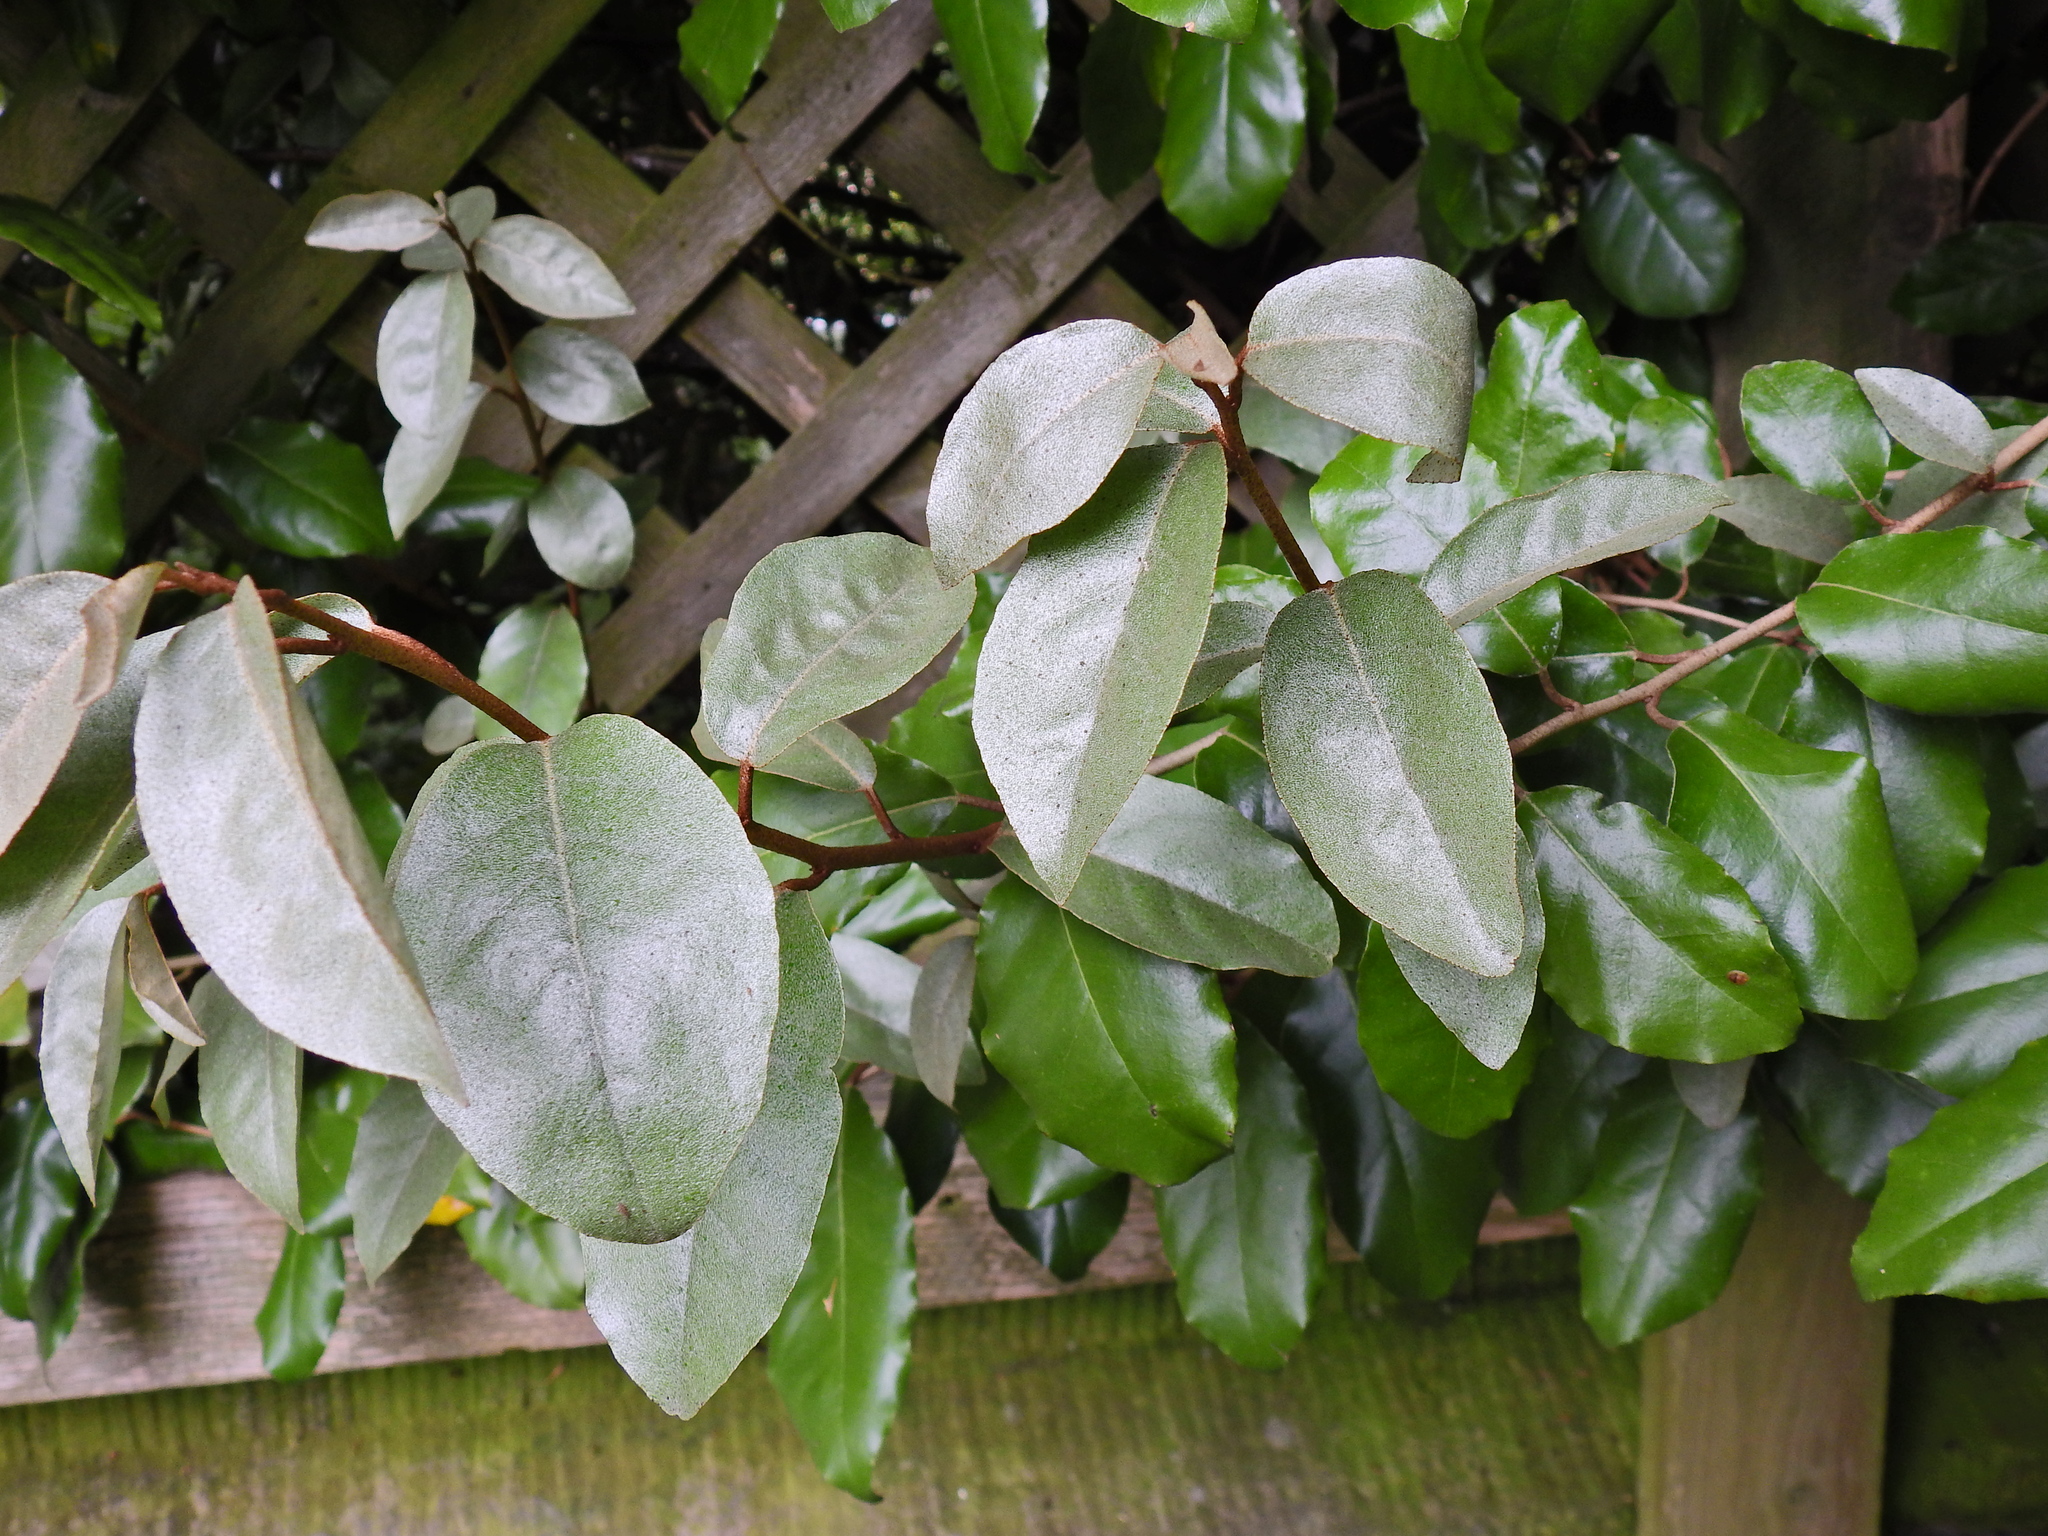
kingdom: Plantae
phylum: Tracheophyta
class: Magnoliopsida
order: Rosales
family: Elaeagnaceae
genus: Elaeagnus
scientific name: Elaeagnus submacrophylla
